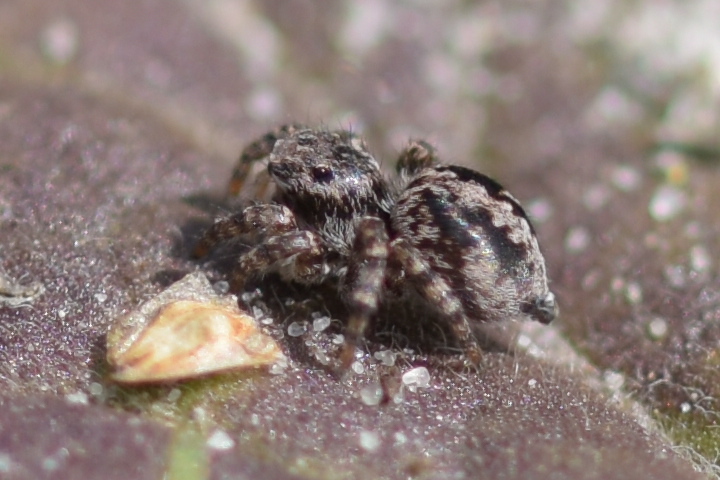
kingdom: Animalia
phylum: Arthropoda
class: Arachnida
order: Araneae
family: Salticidae
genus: Aelurillus
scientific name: Aelurillus v-insignitus
